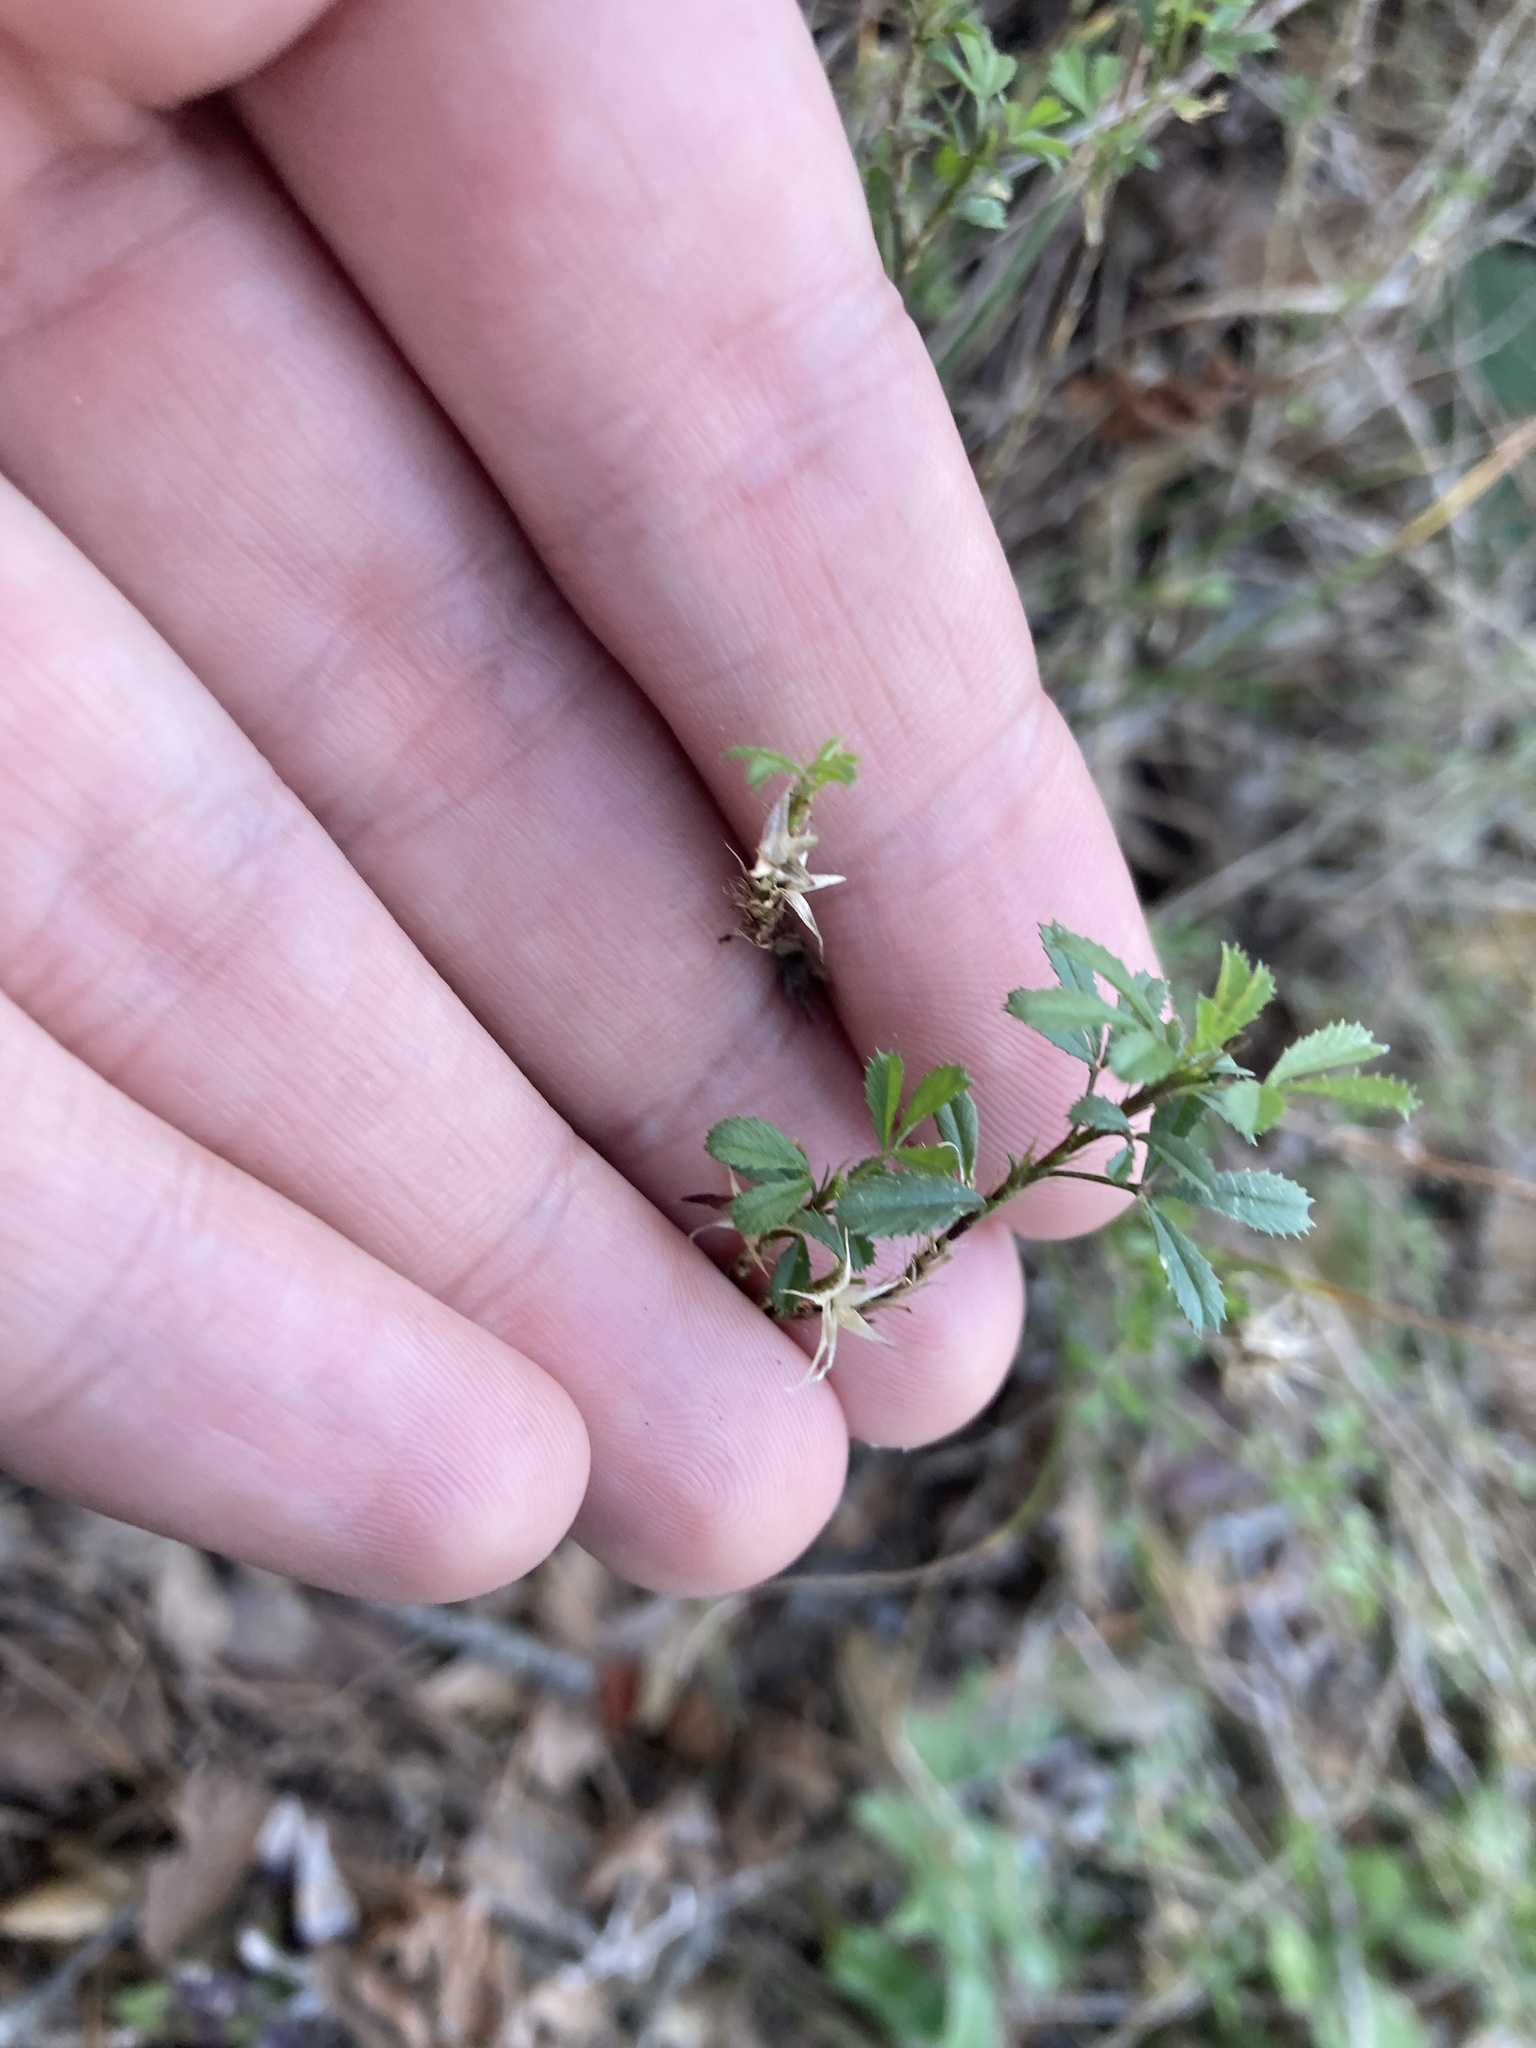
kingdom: Plantae
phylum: Tracheophyta
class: Magnoliopsida
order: Fabales
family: Fabaceae
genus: Ononis
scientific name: Ononis minutissima
